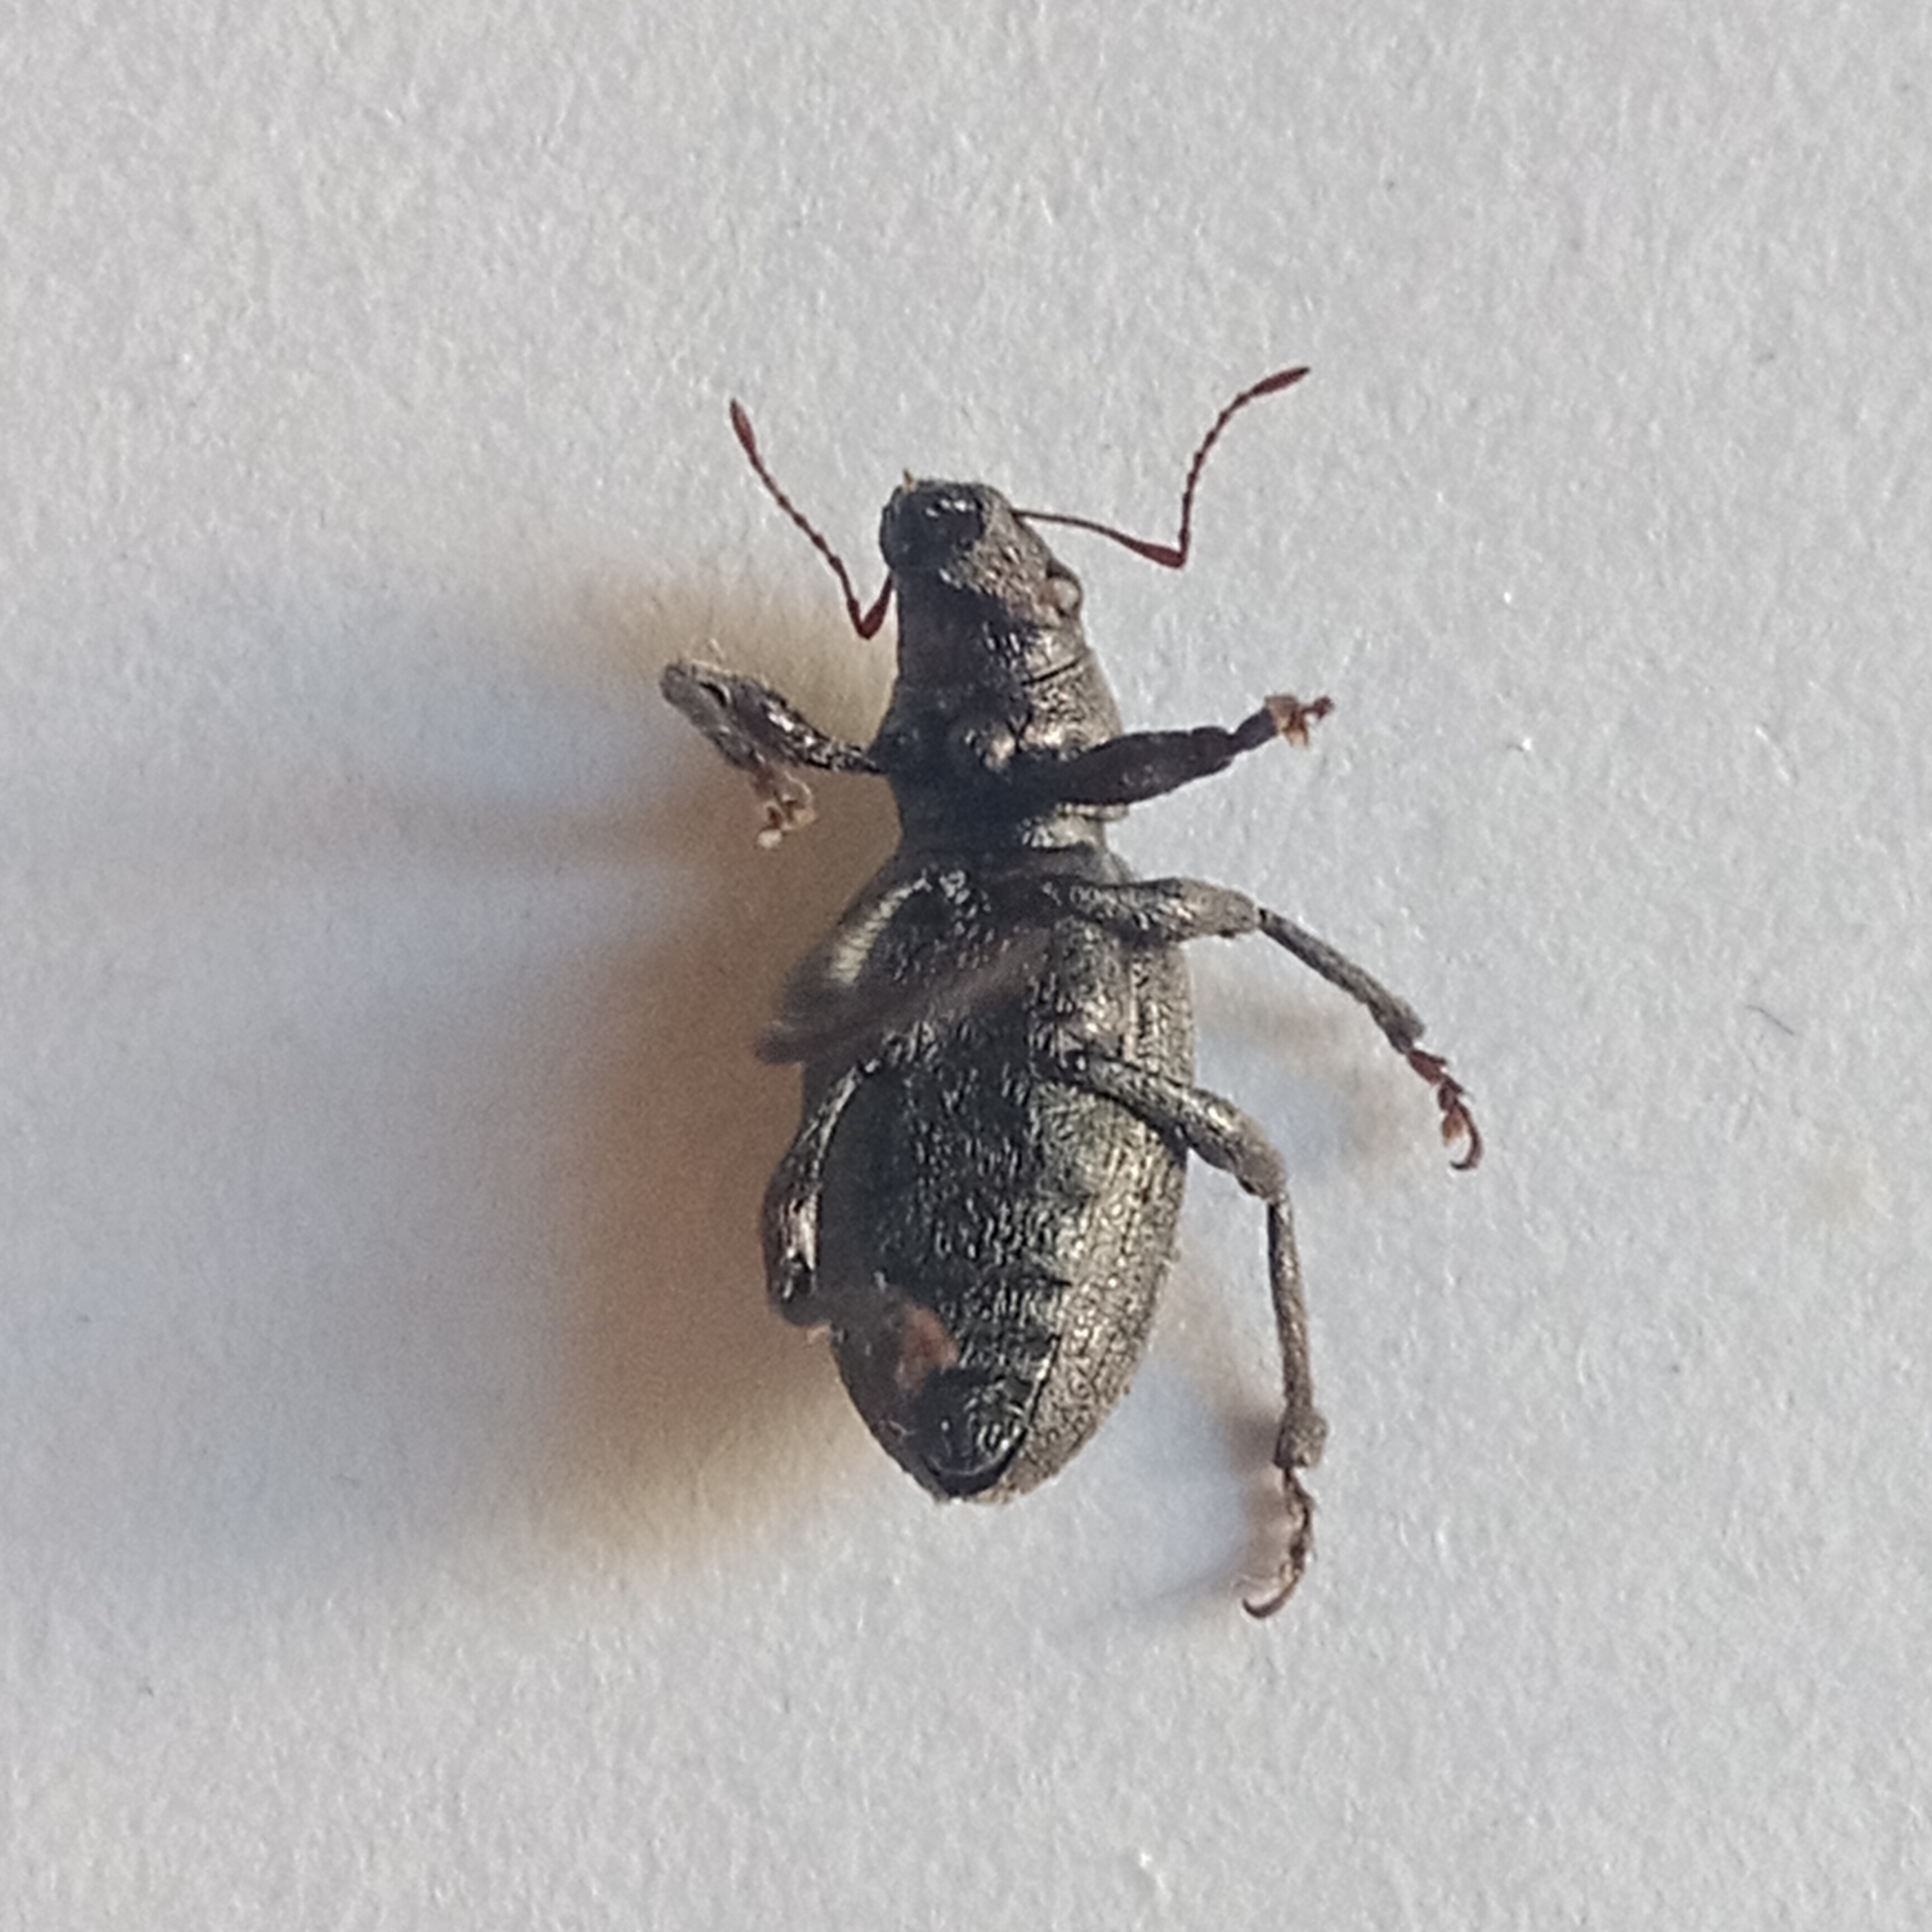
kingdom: Animalia
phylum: Arthropoda
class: Insecta
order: Coleoptera
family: Curculionidae
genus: Brachyderes
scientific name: Brachyderes incanus
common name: Weevil
